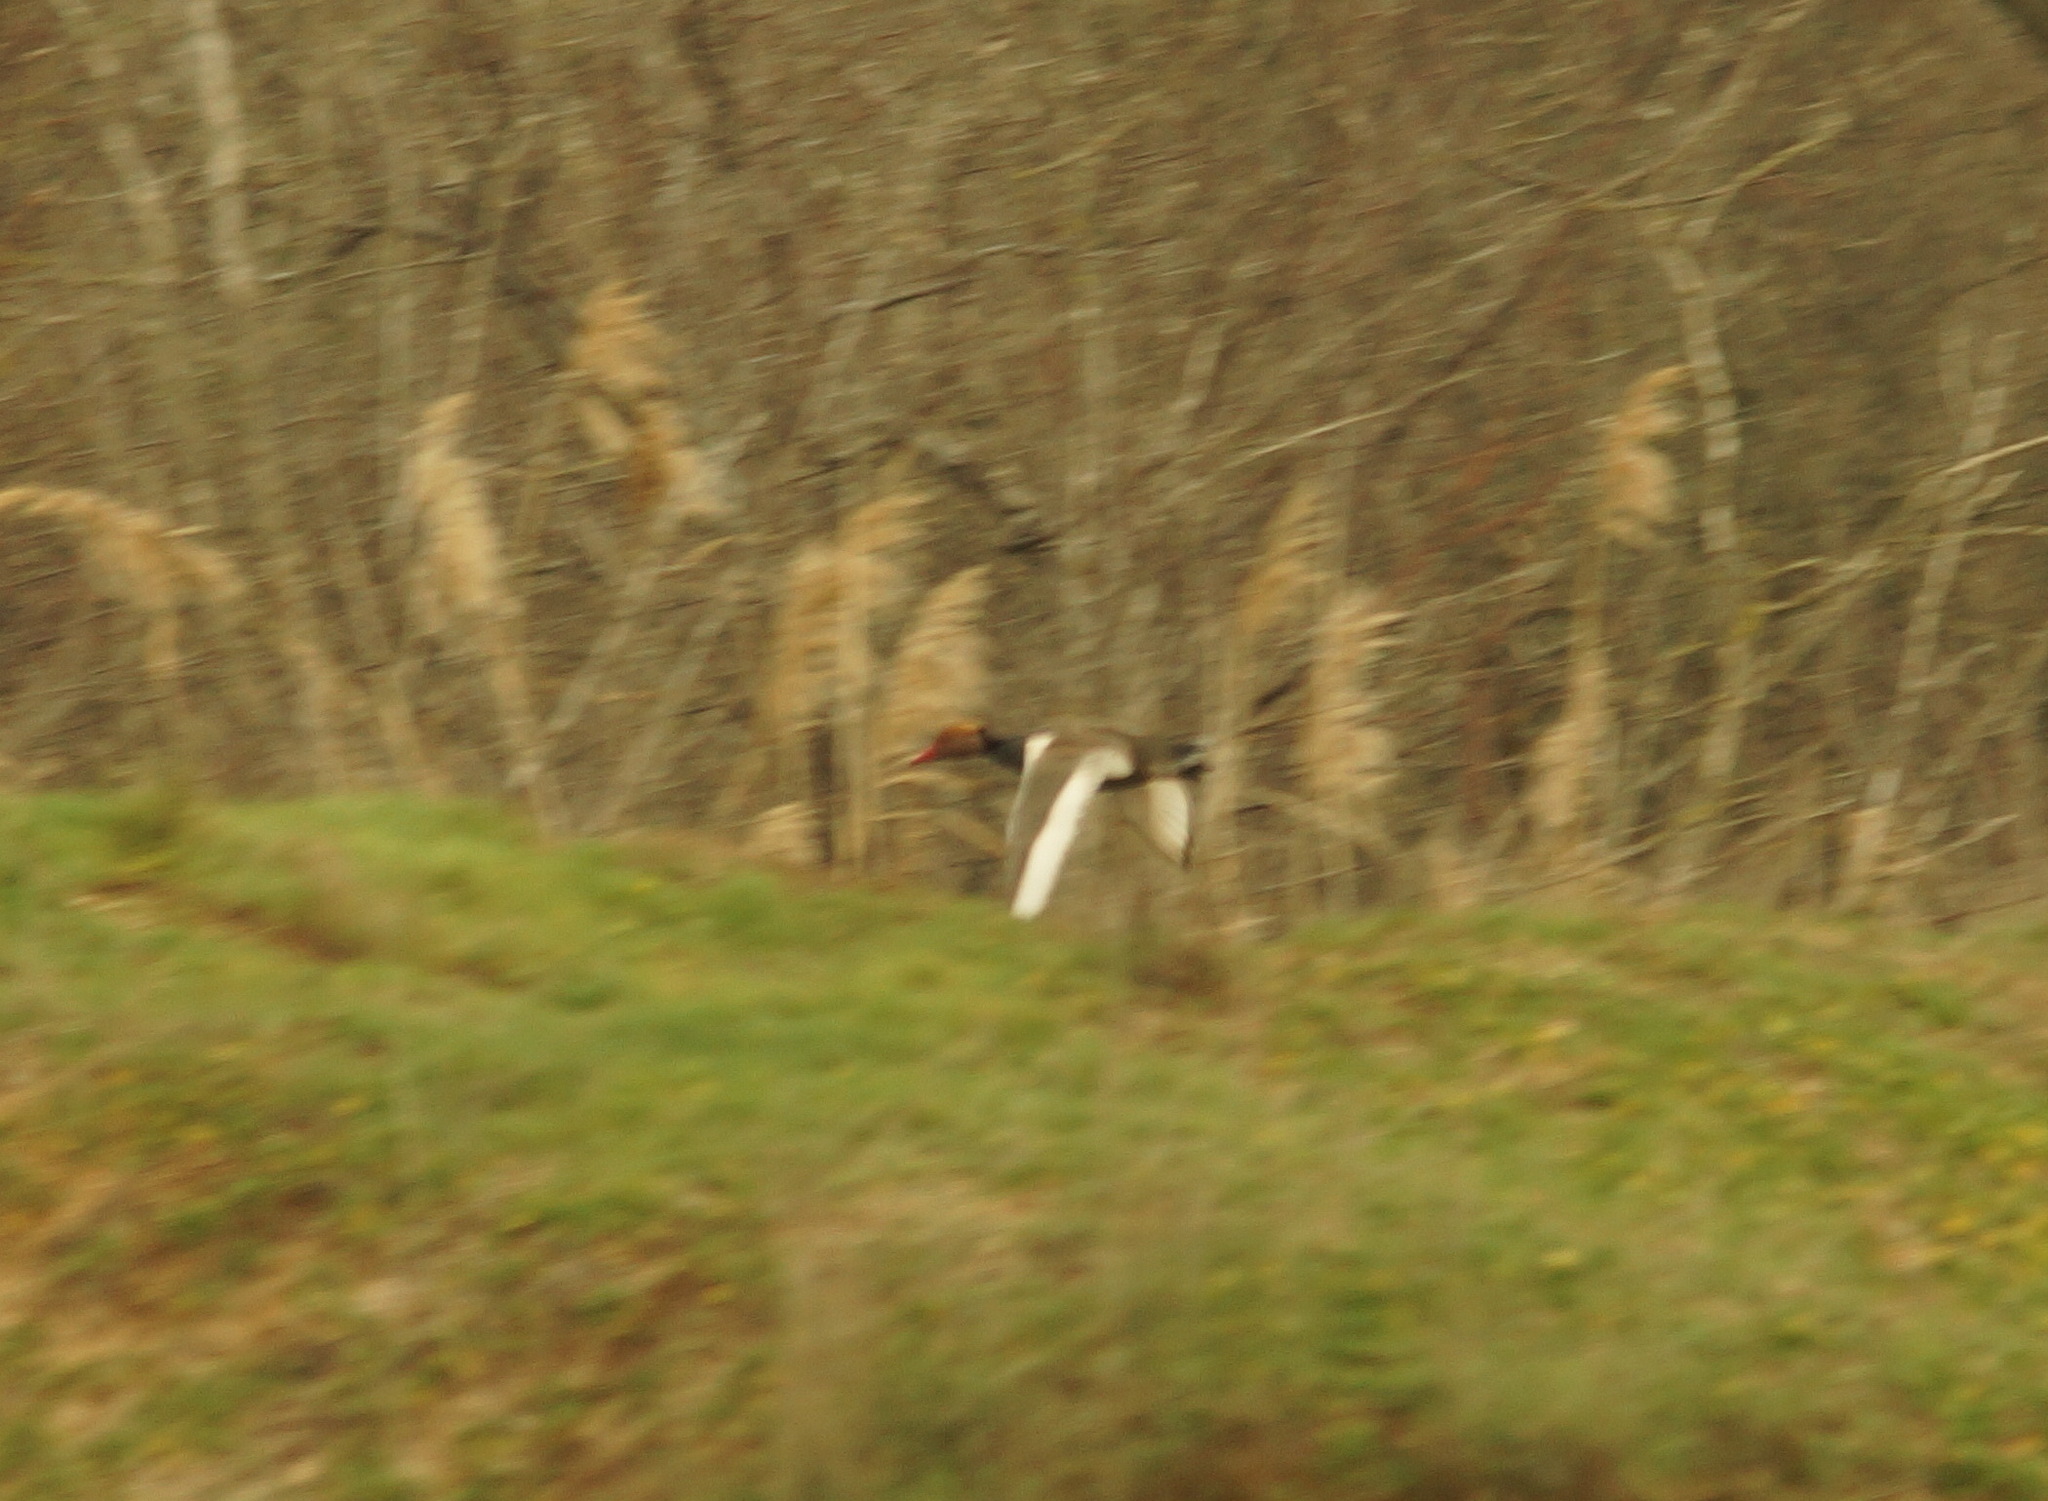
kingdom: Animalia
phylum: Chordata
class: Aves
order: Anseriformes
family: Anatidae
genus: Netta
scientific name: Netta rufina
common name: Red-crested pochard
